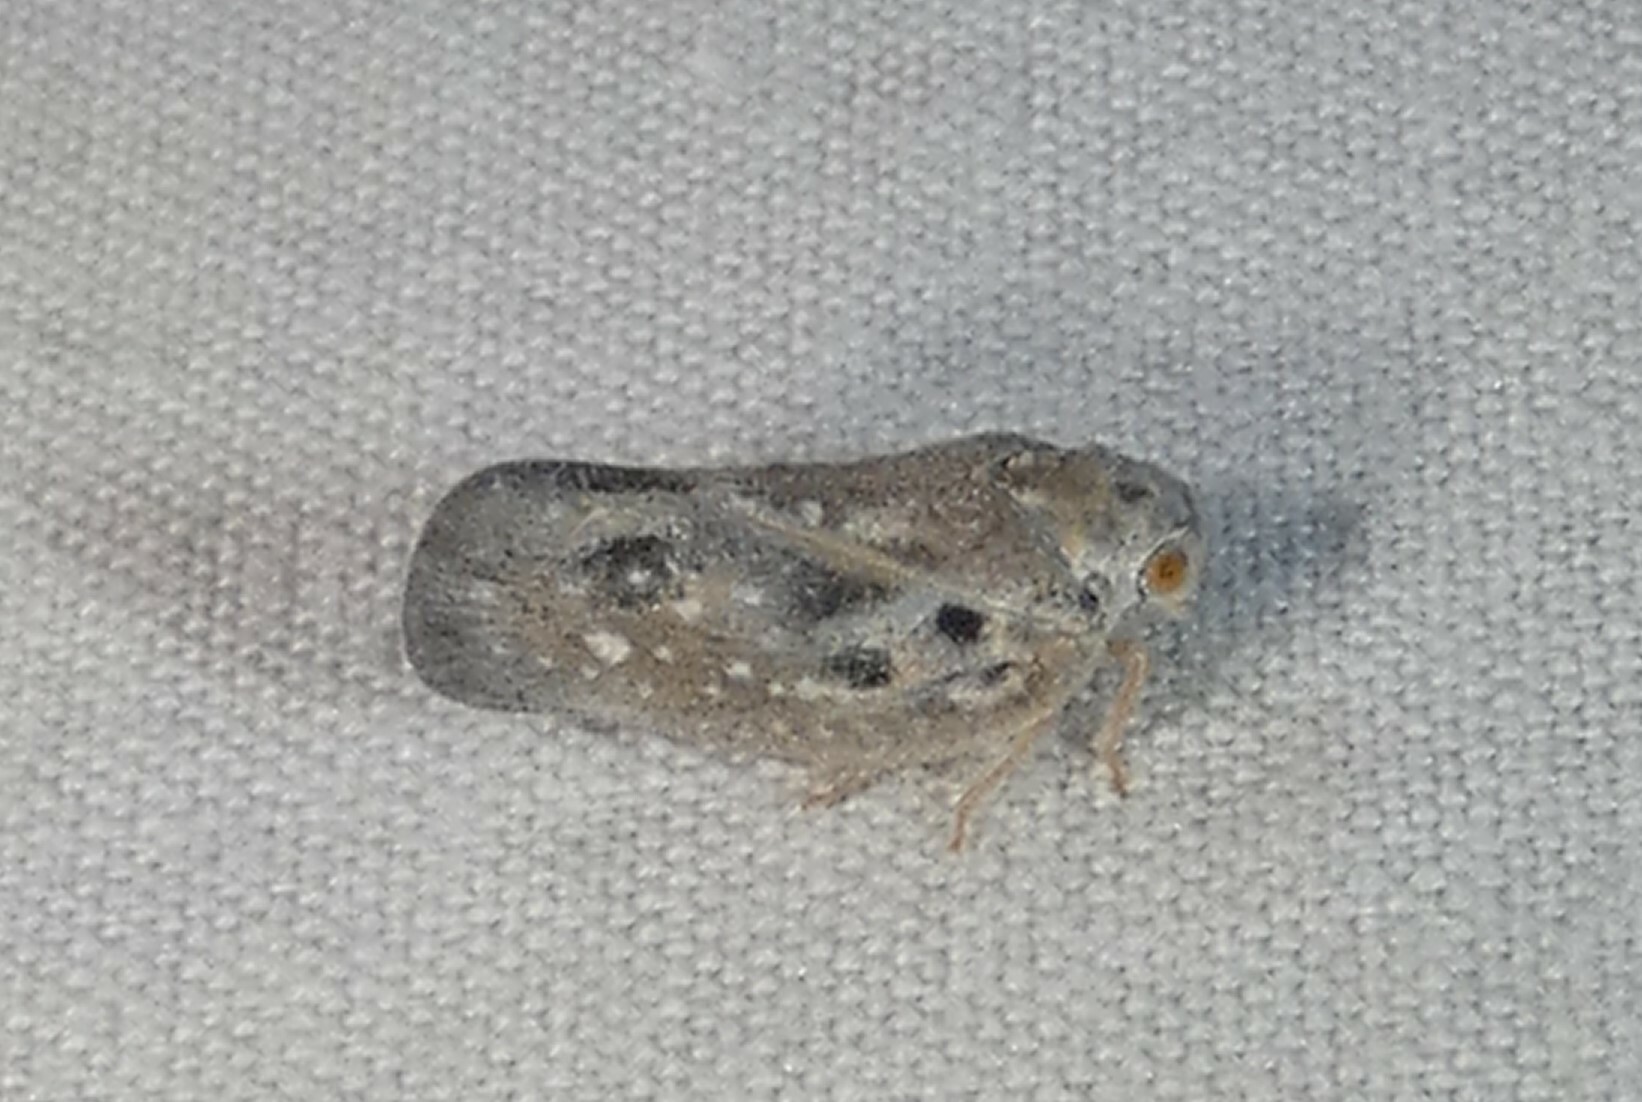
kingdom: Animalia
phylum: Arthropoda
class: Insecta
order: Hemiptera
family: Flatidae
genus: Metcalfa
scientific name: Metcalfa pruinosa
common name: Citrus flatid planthopper
